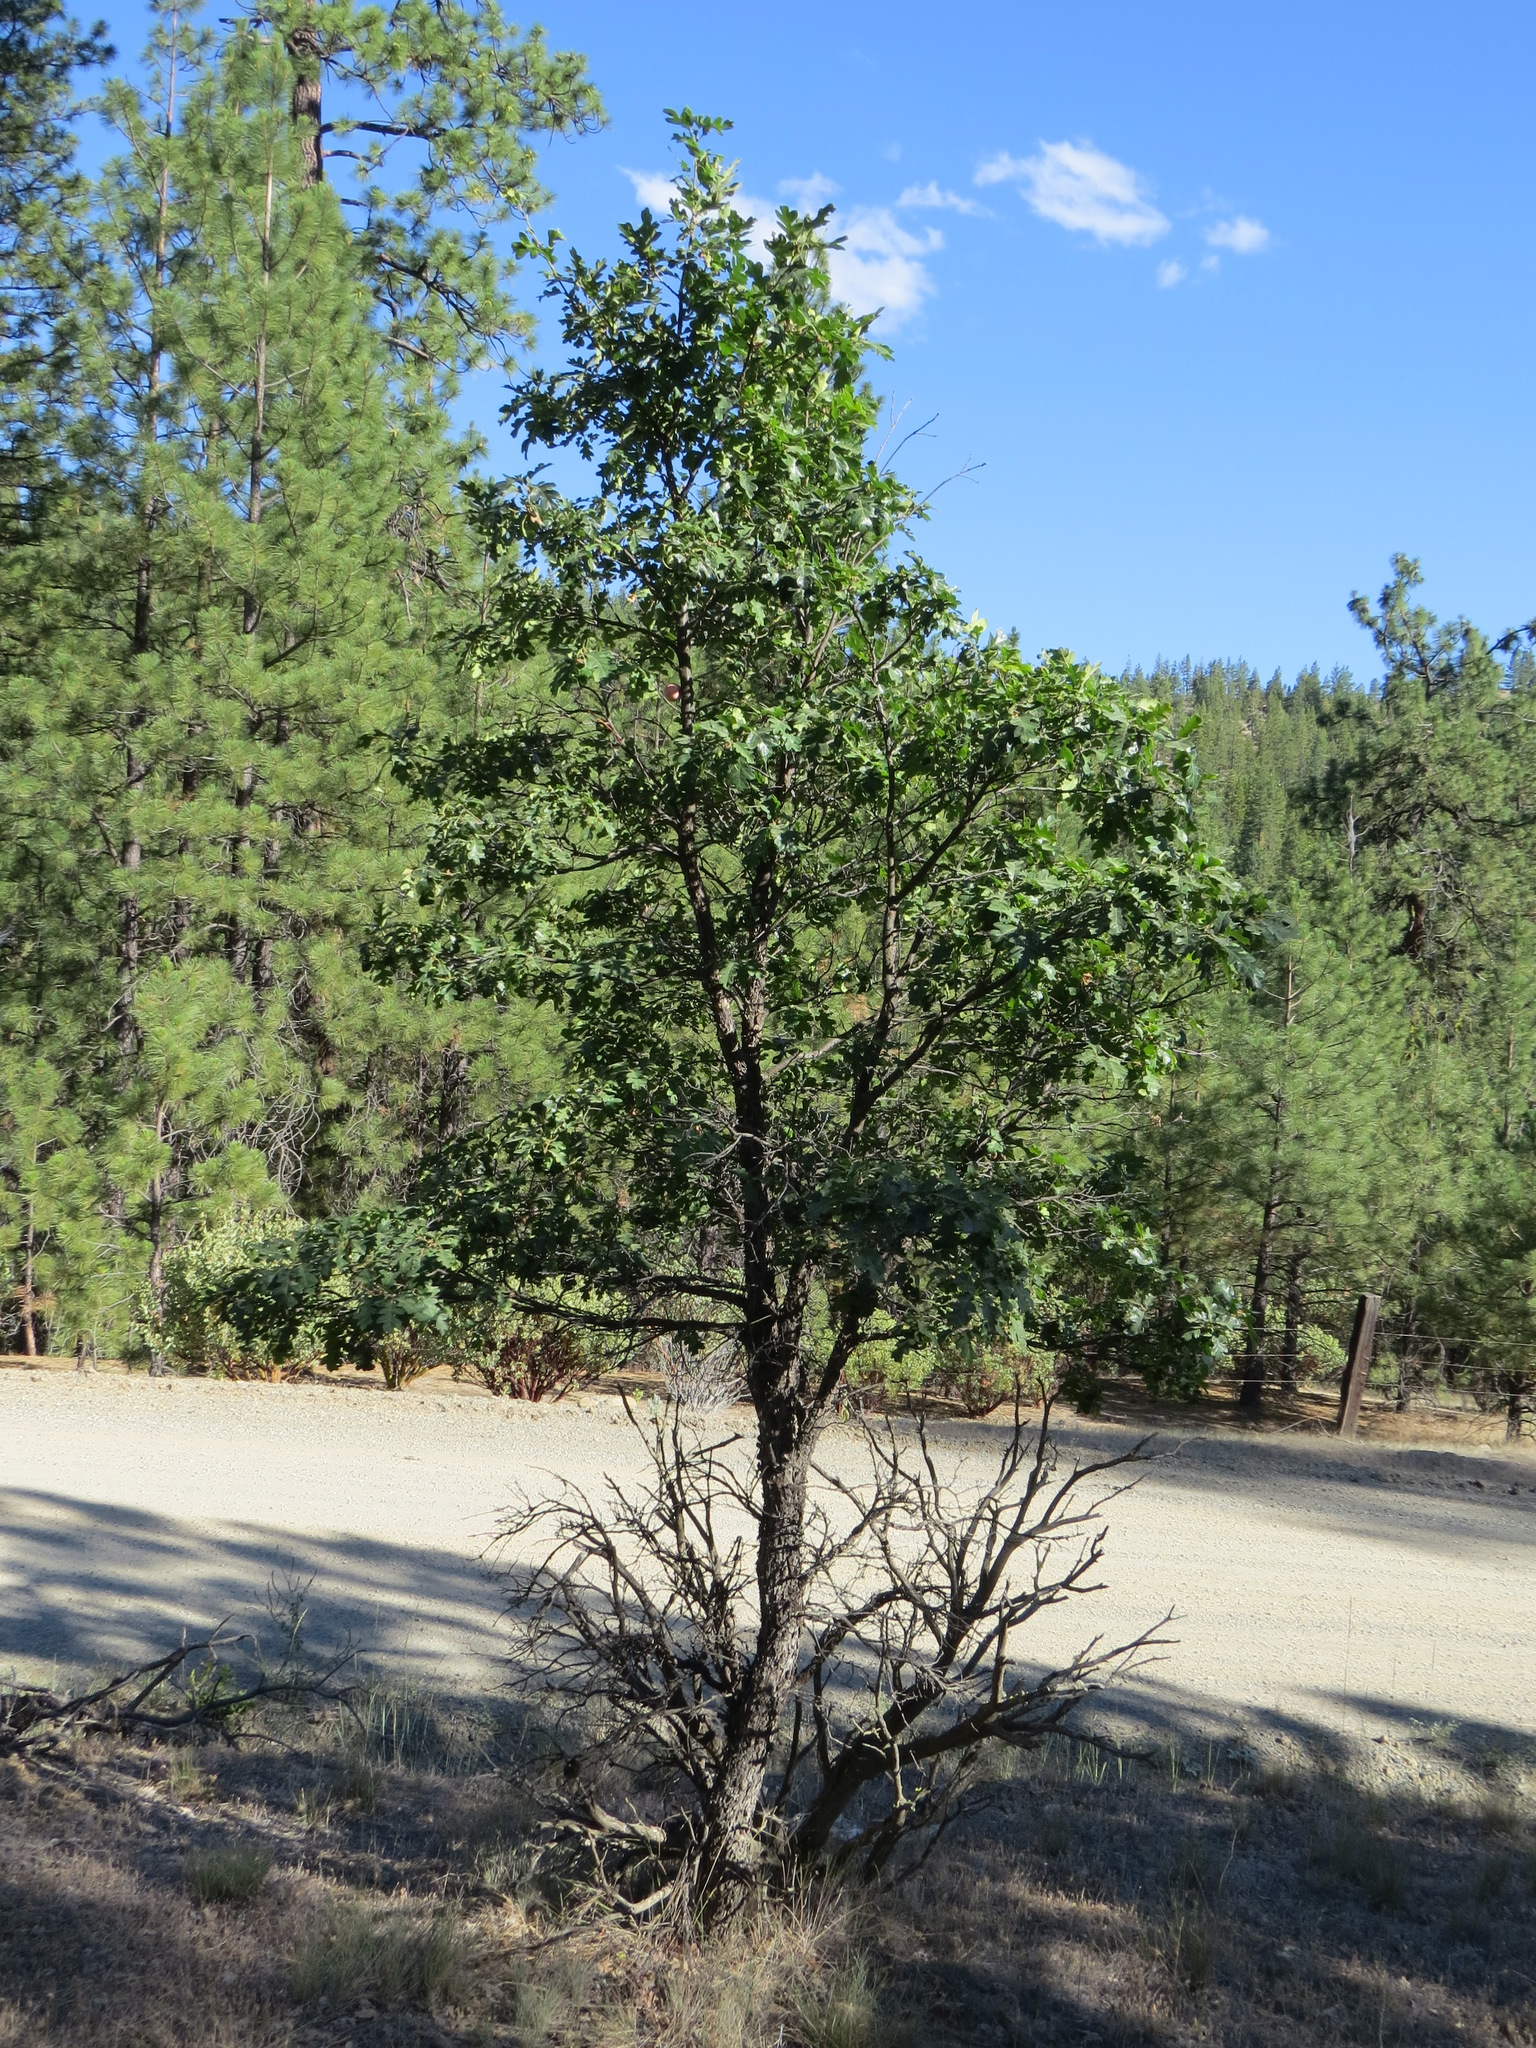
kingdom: Animalia
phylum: Arthropoda
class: Insecta
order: Hymenoptera
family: Cynipidae
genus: Andricus
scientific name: Andricus quercuscalifornicus
